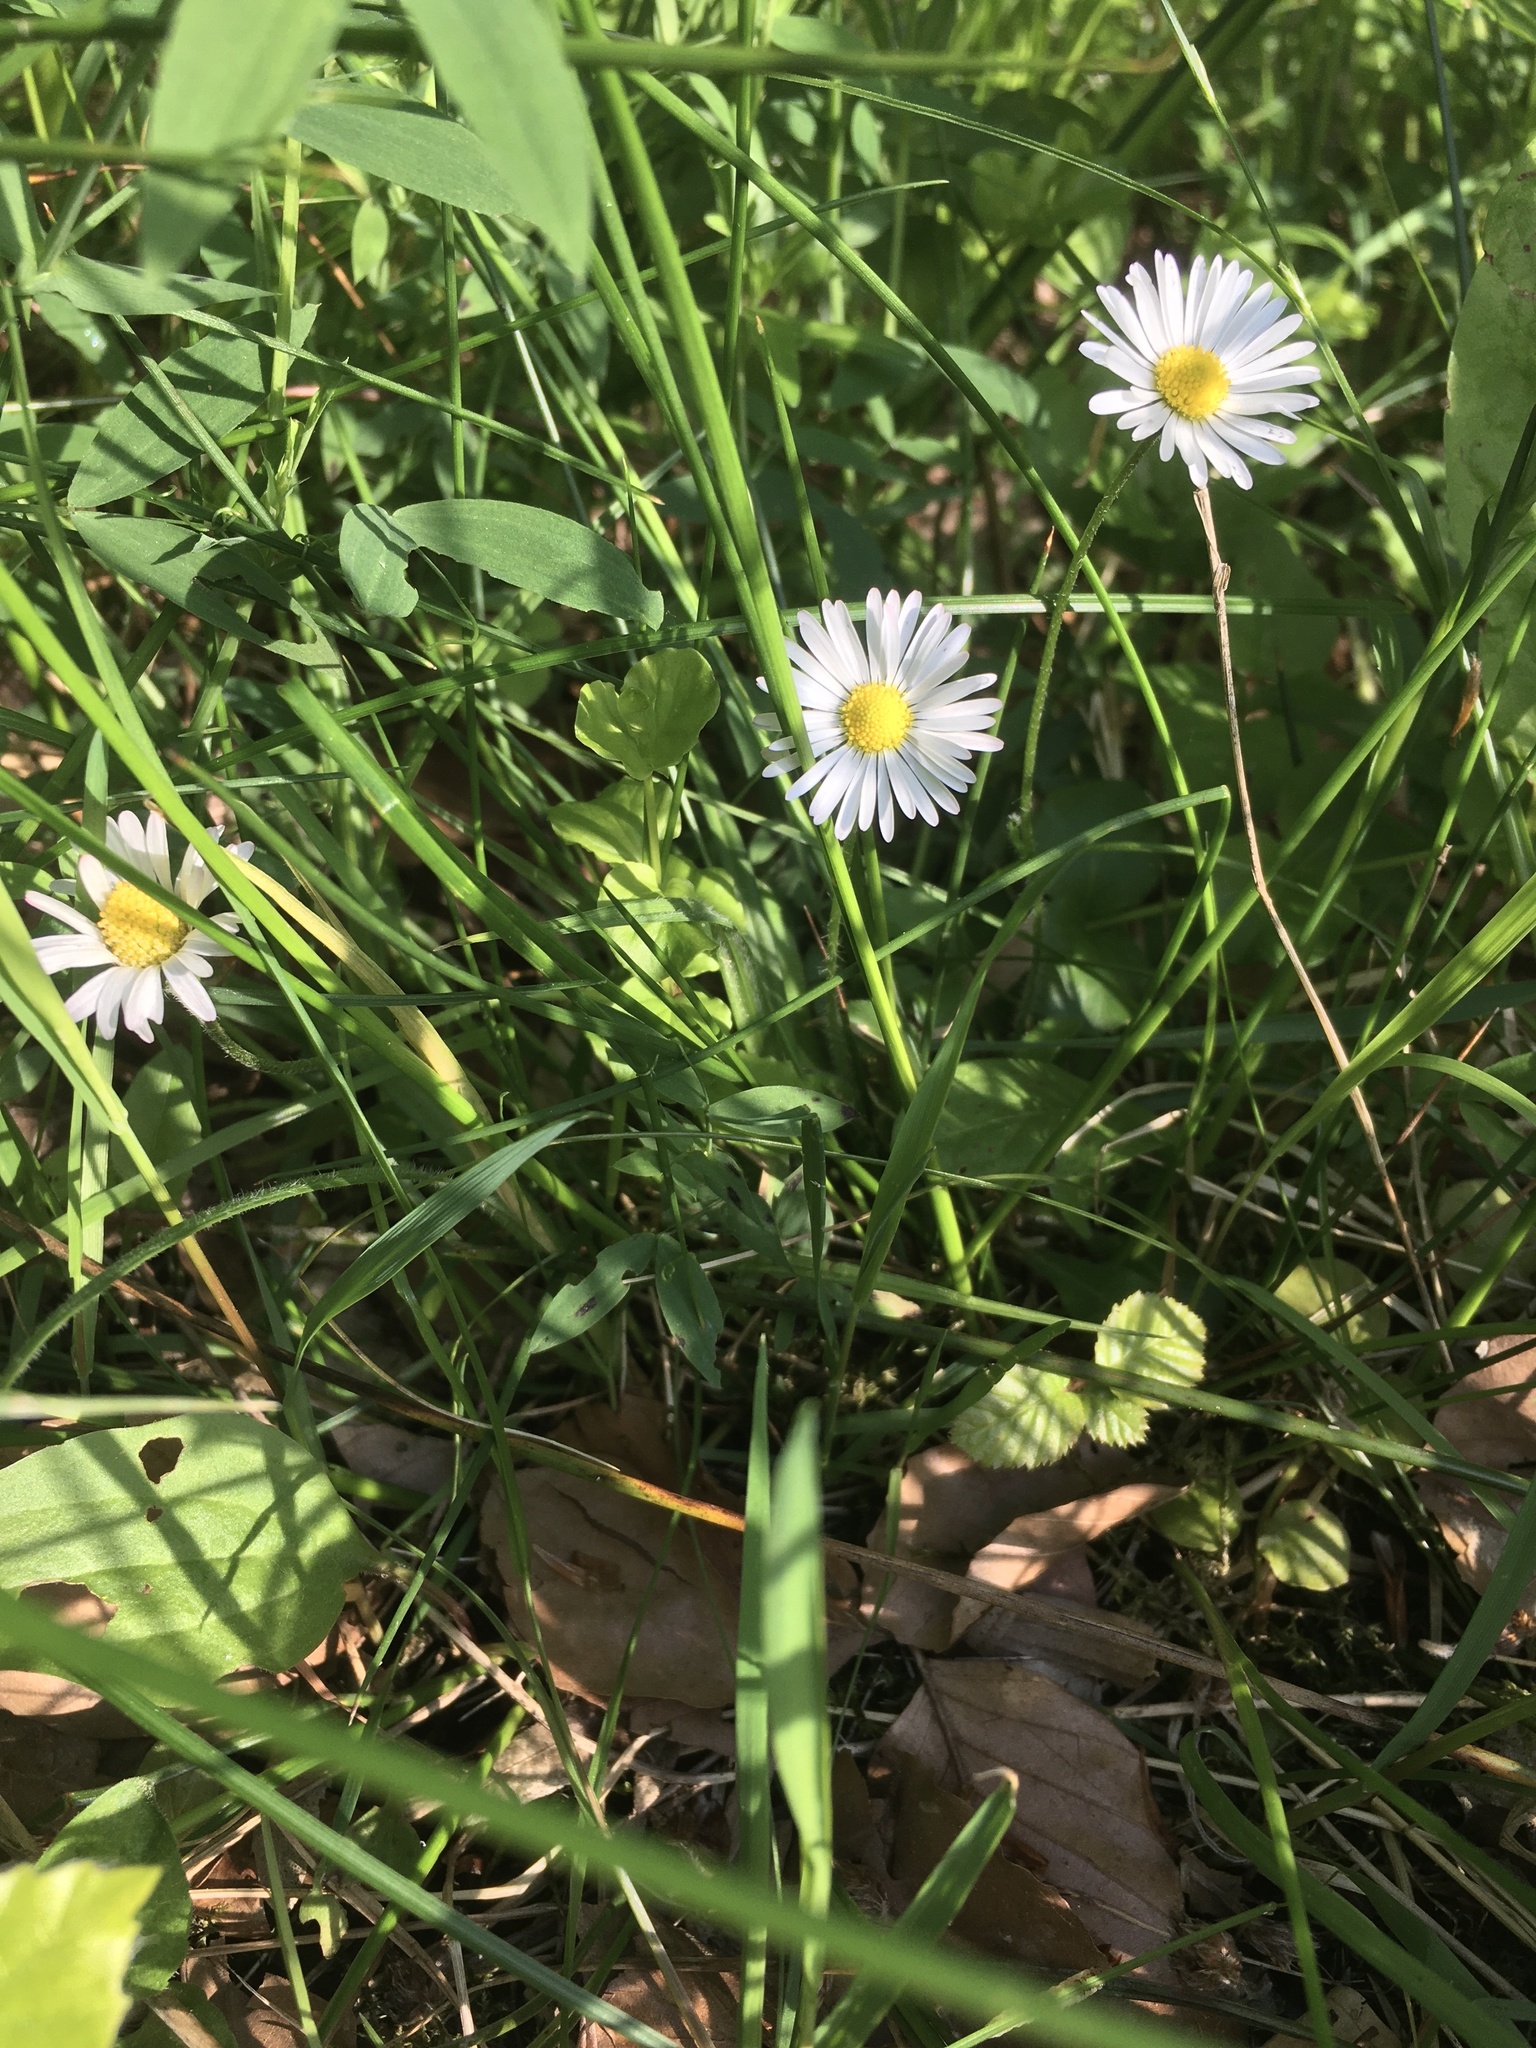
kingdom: Plantae
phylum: Tracheophyta
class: Magnoliopsida
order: Asterales
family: Asteraceae
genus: Bellis
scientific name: Bellis perennis
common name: Lawndaisy
